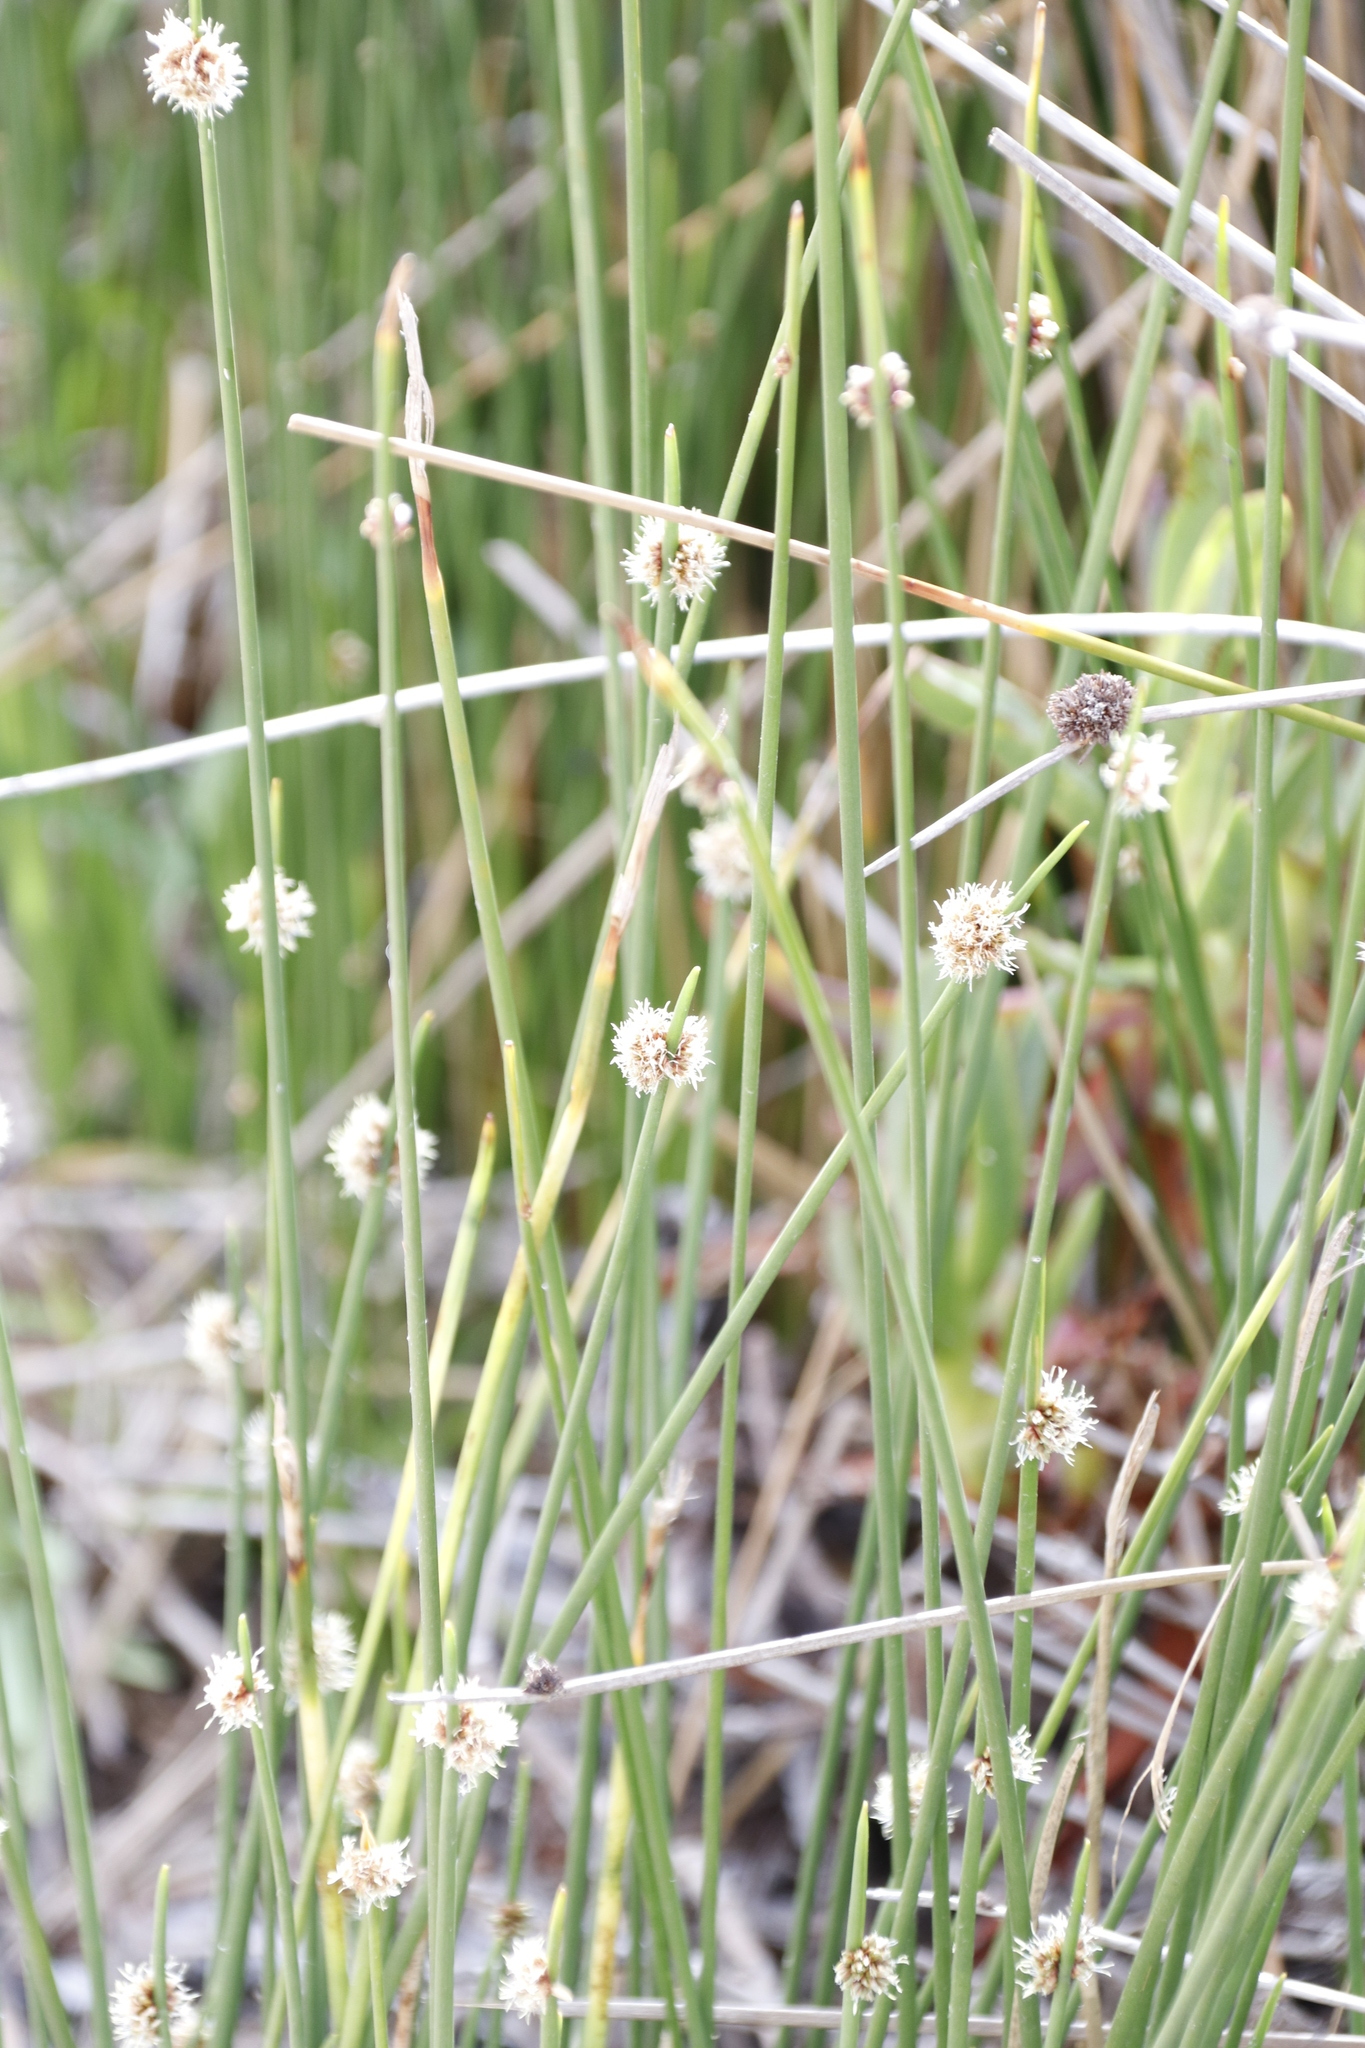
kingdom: Plantae
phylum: Tracheophyta
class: Liliopsida
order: Poales
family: Cyperaceae
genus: Ficinia
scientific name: Ficinia nodosa
